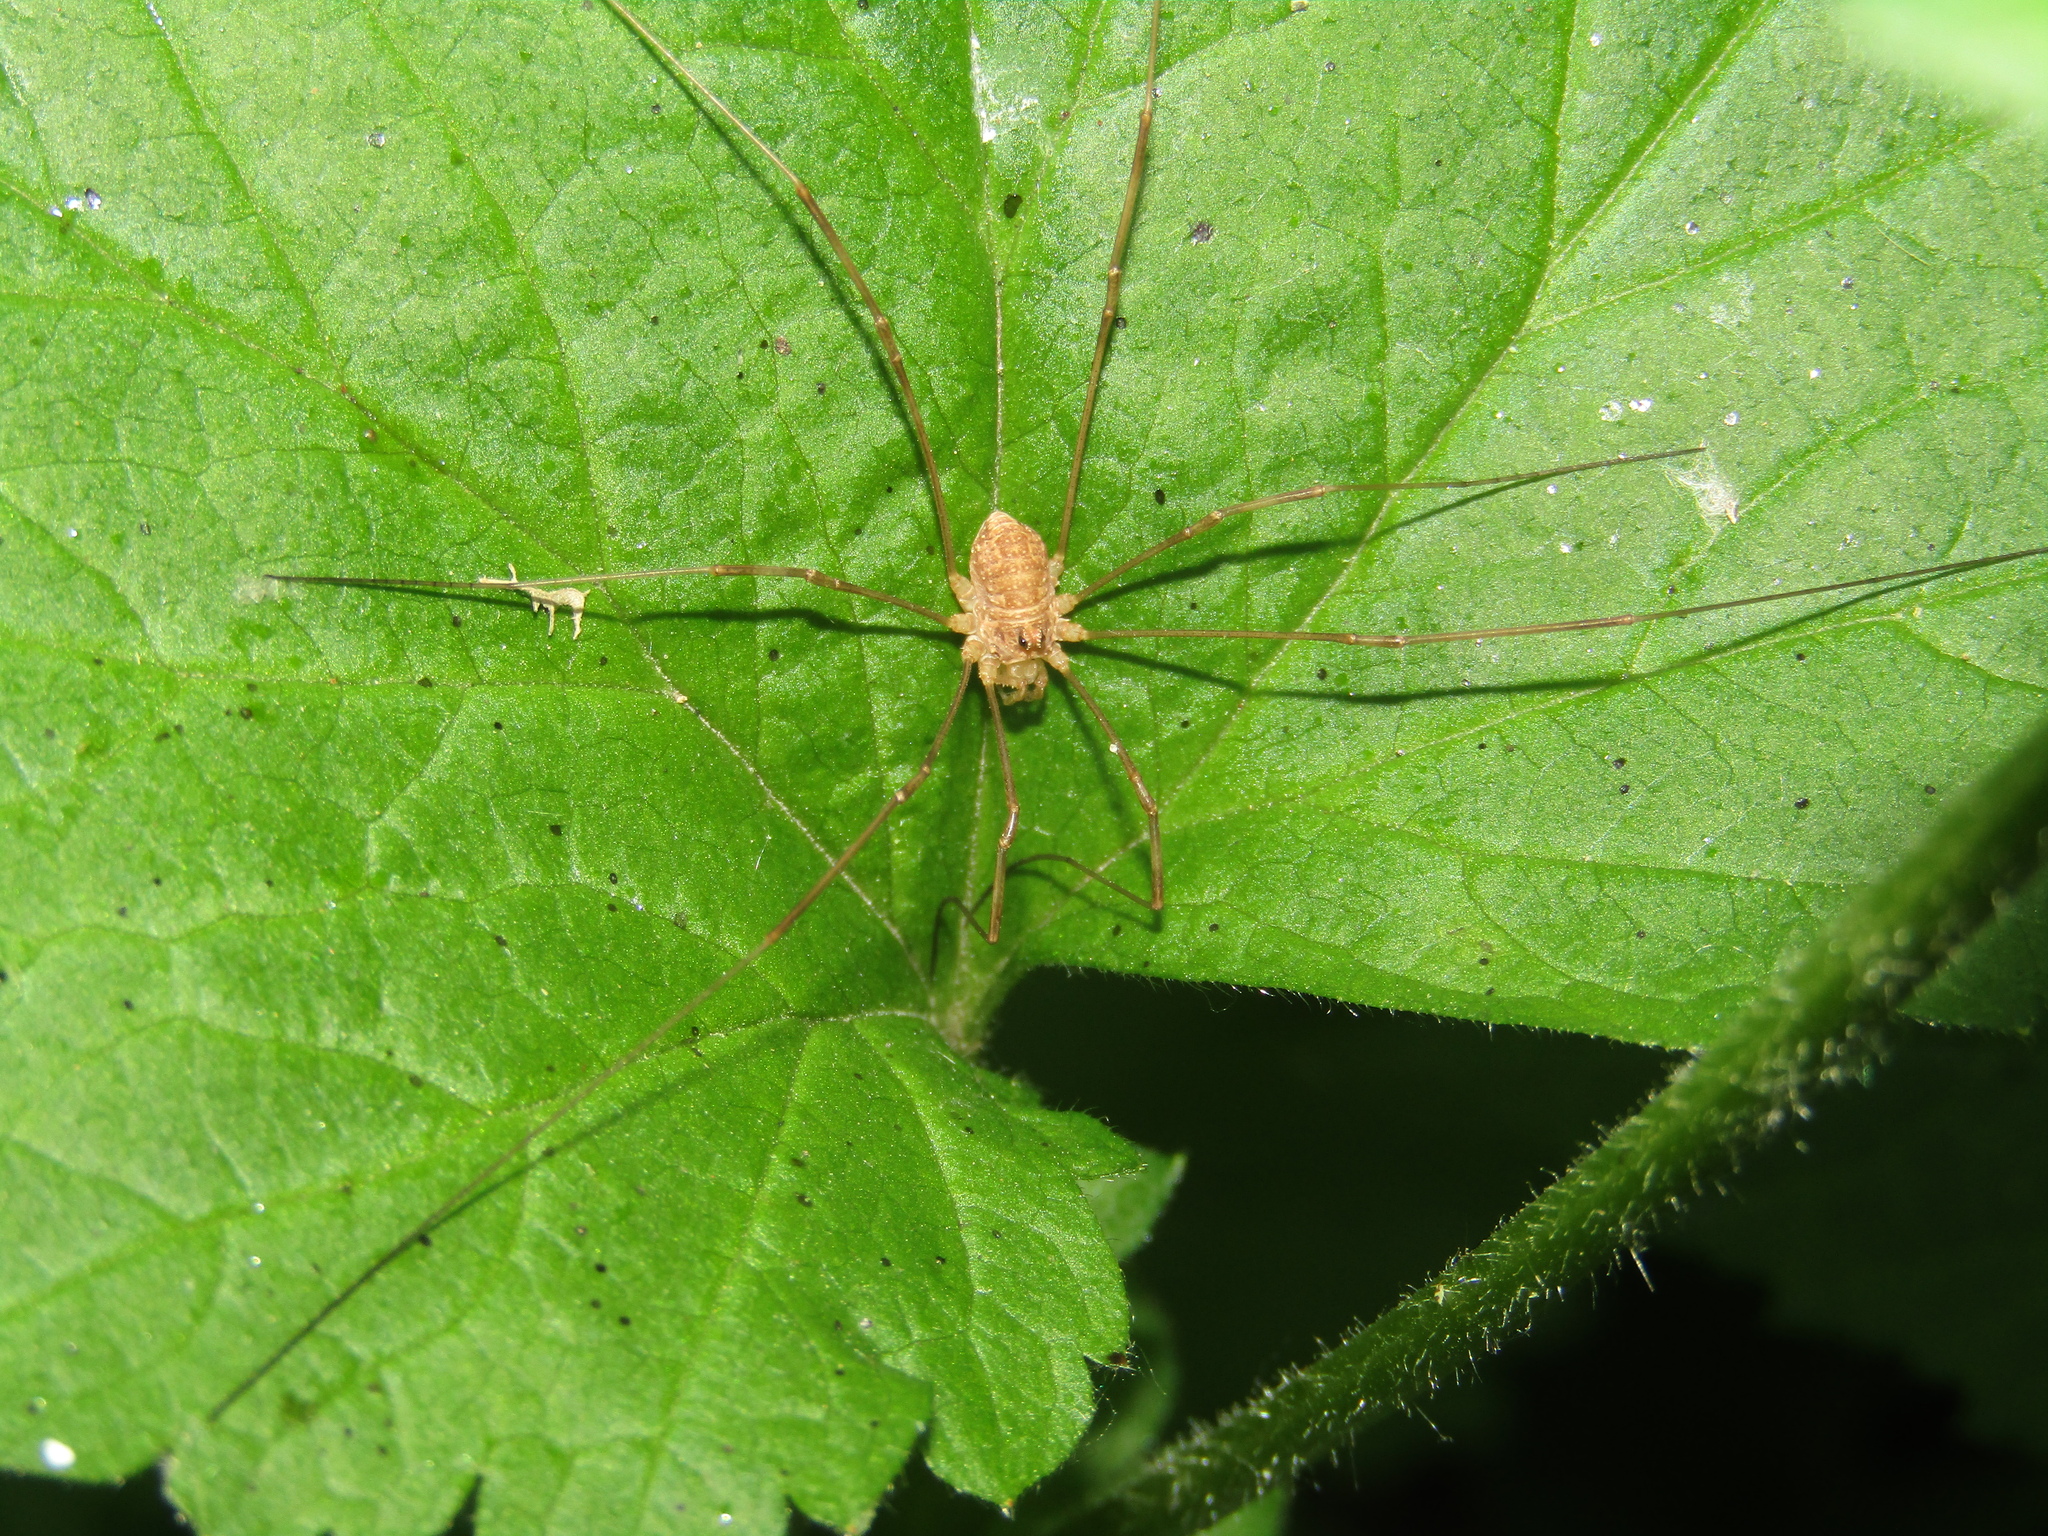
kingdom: Animalia
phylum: Arthropoda
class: Arachnida
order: Opiliones
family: Phalangiidae
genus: Rilaena
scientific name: Rilaena triangularis
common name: Spring harvestman
